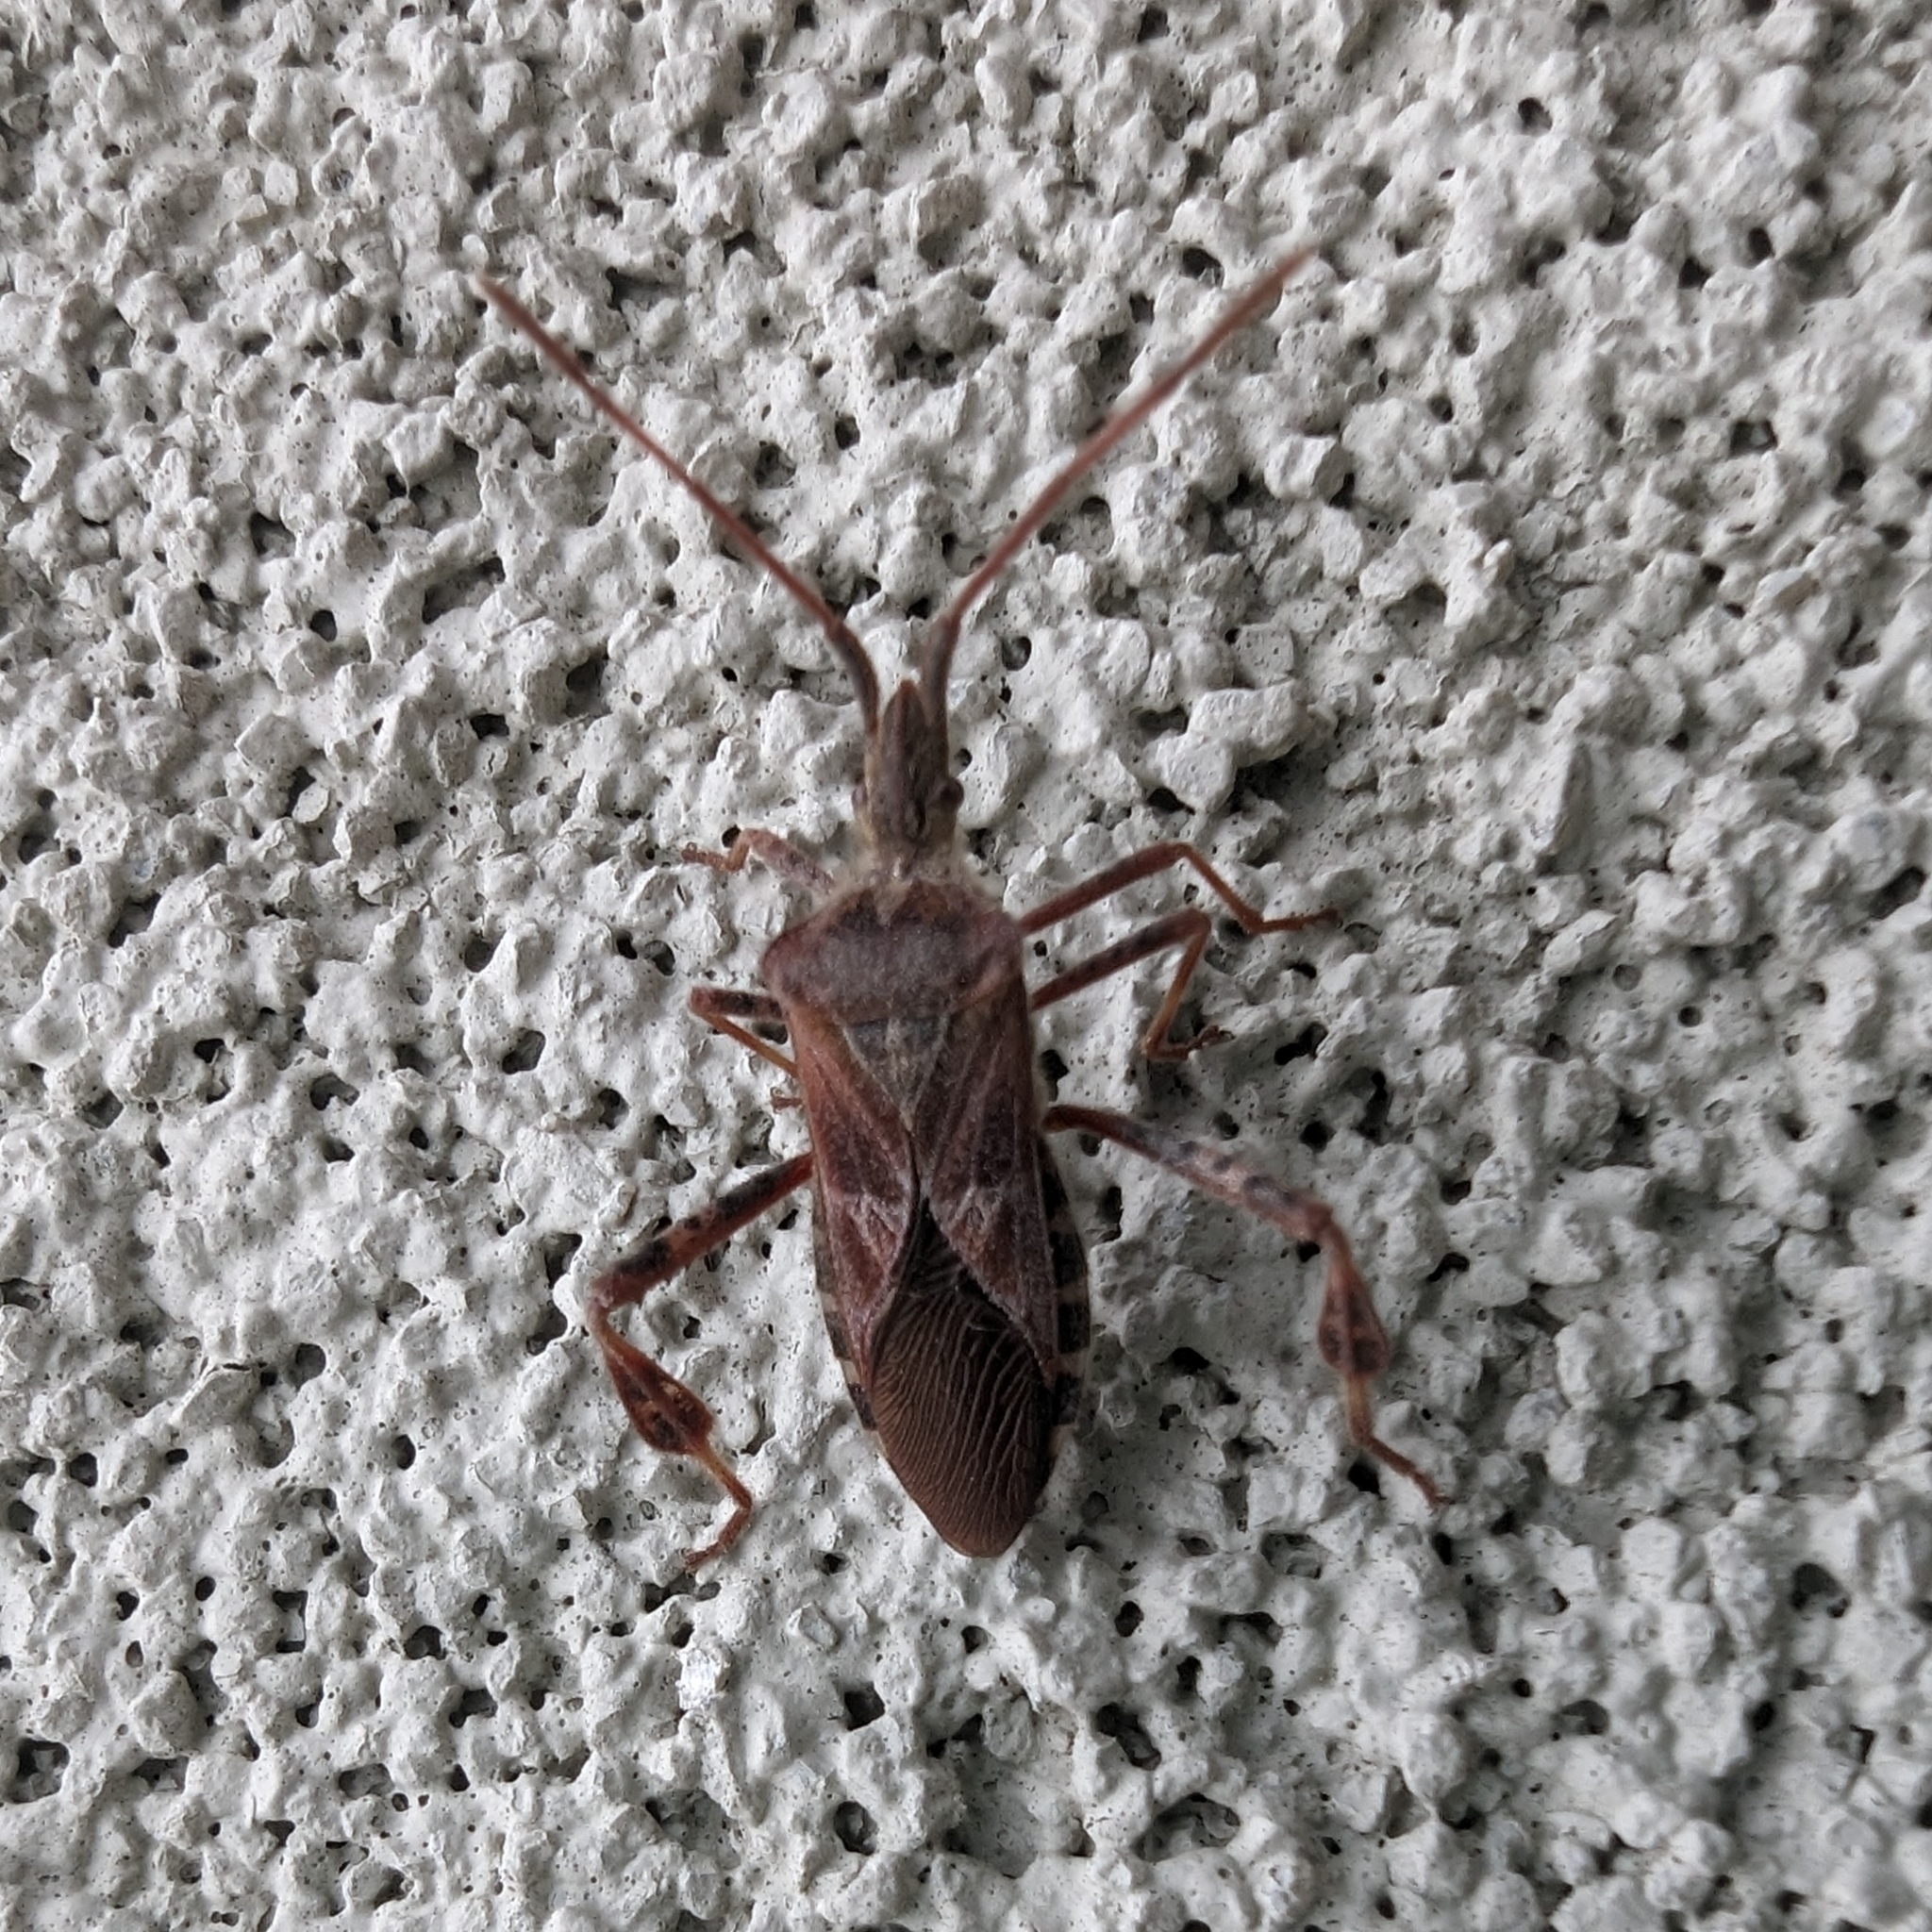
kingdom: Animalia
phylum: Arthropoda
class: Insecta
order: Hemiptera
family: Coreidae
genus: Leptoglossus
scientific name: Leptoglossus occidentalis
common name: Western conifer-seed bug
